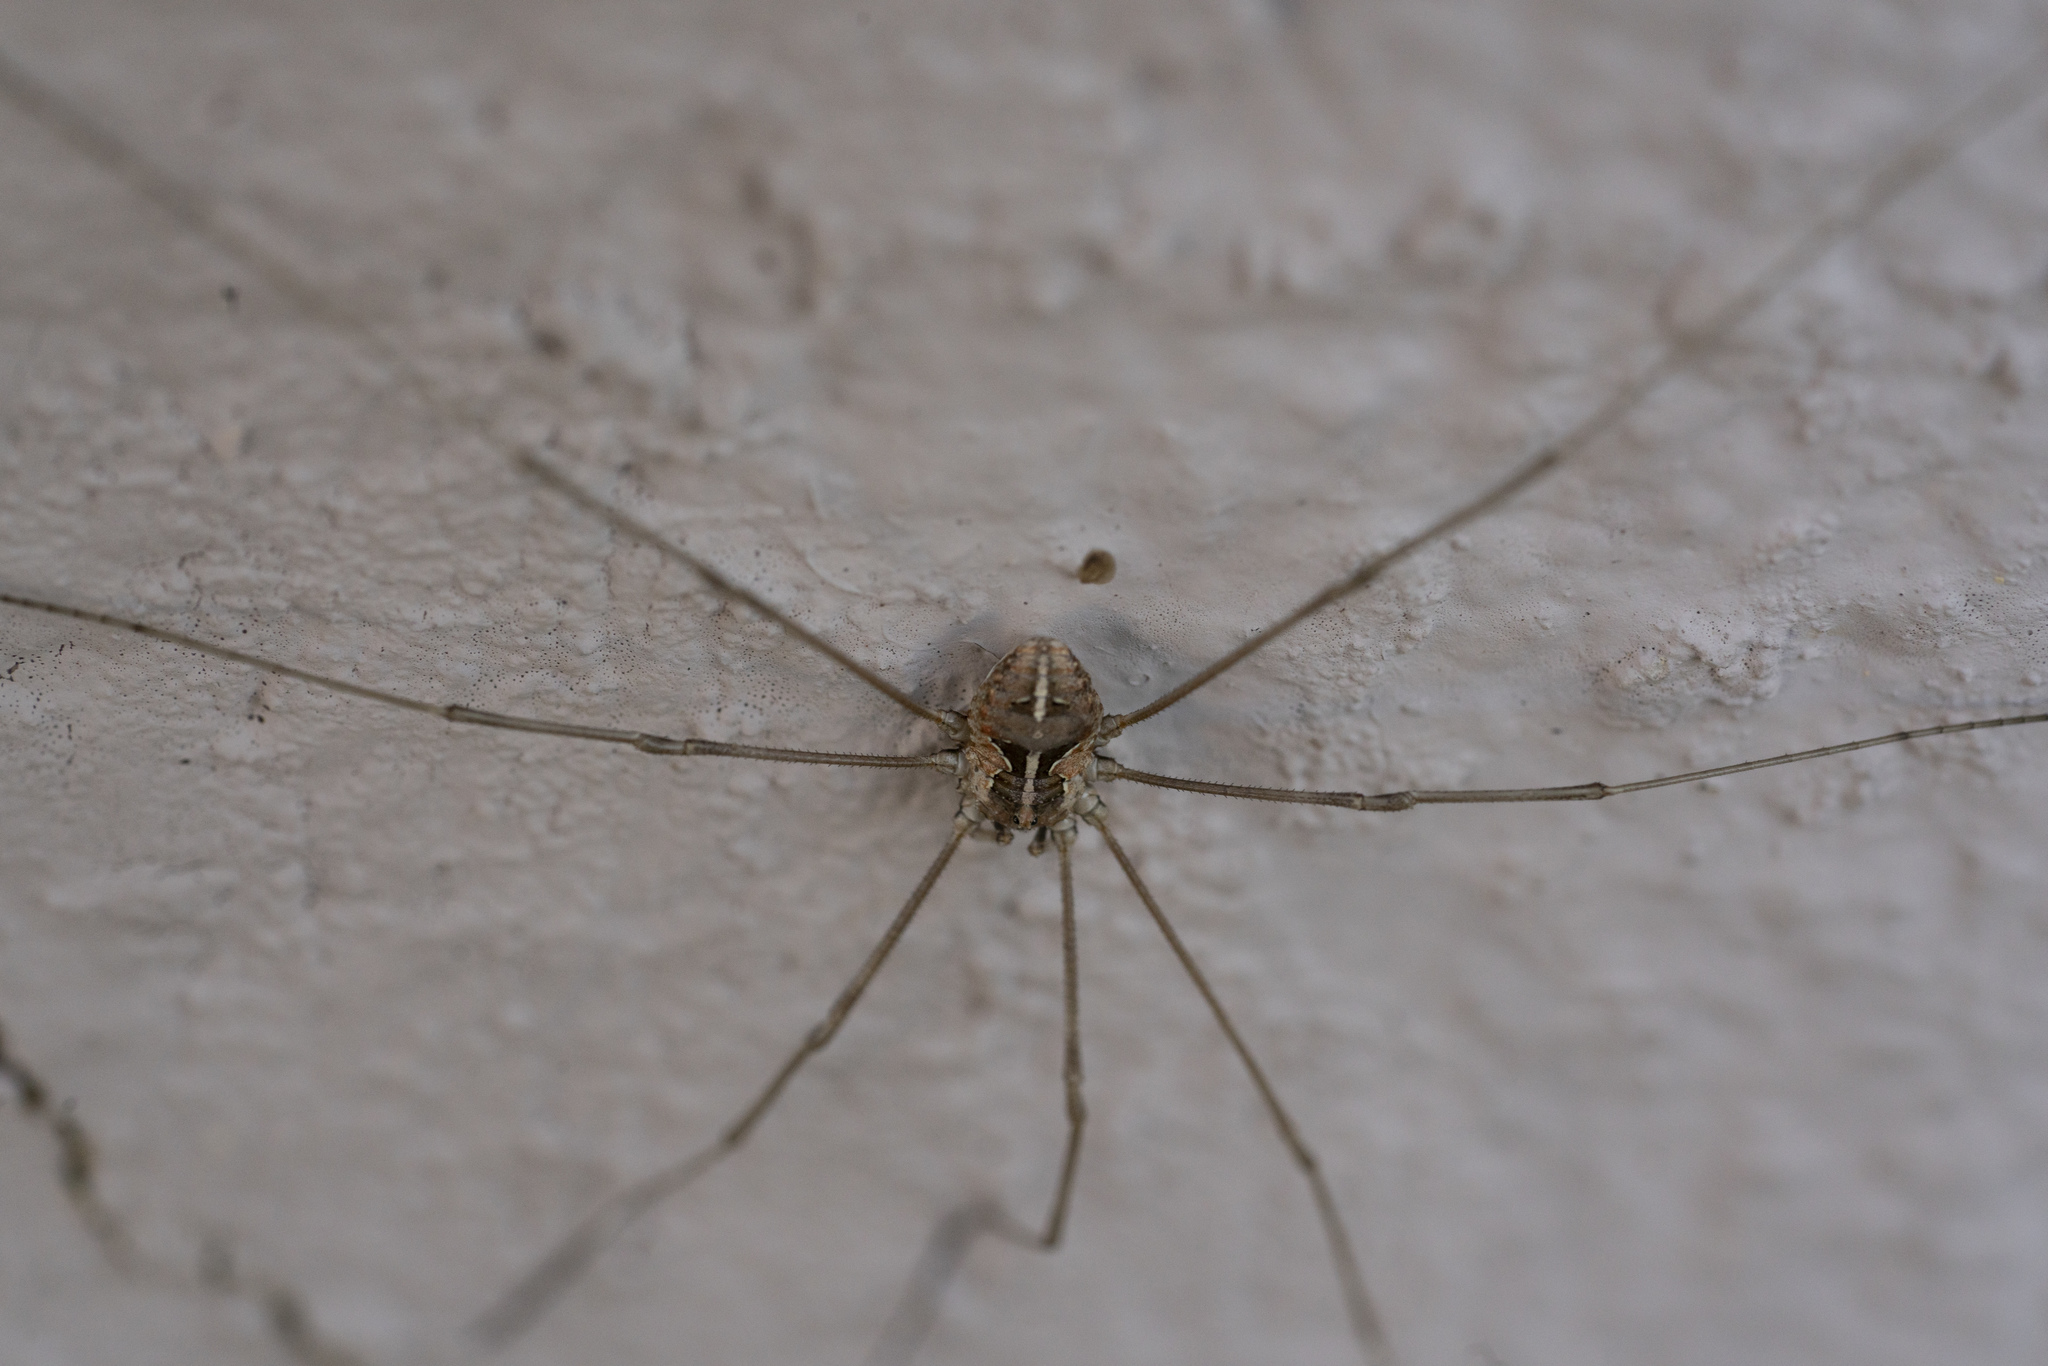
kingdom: Animalia
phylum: Arthropoda
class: Arachnida
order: Opiliones
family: Phalangiidae
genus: Metaphalangium
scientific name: Metaphalangium cirtanum
